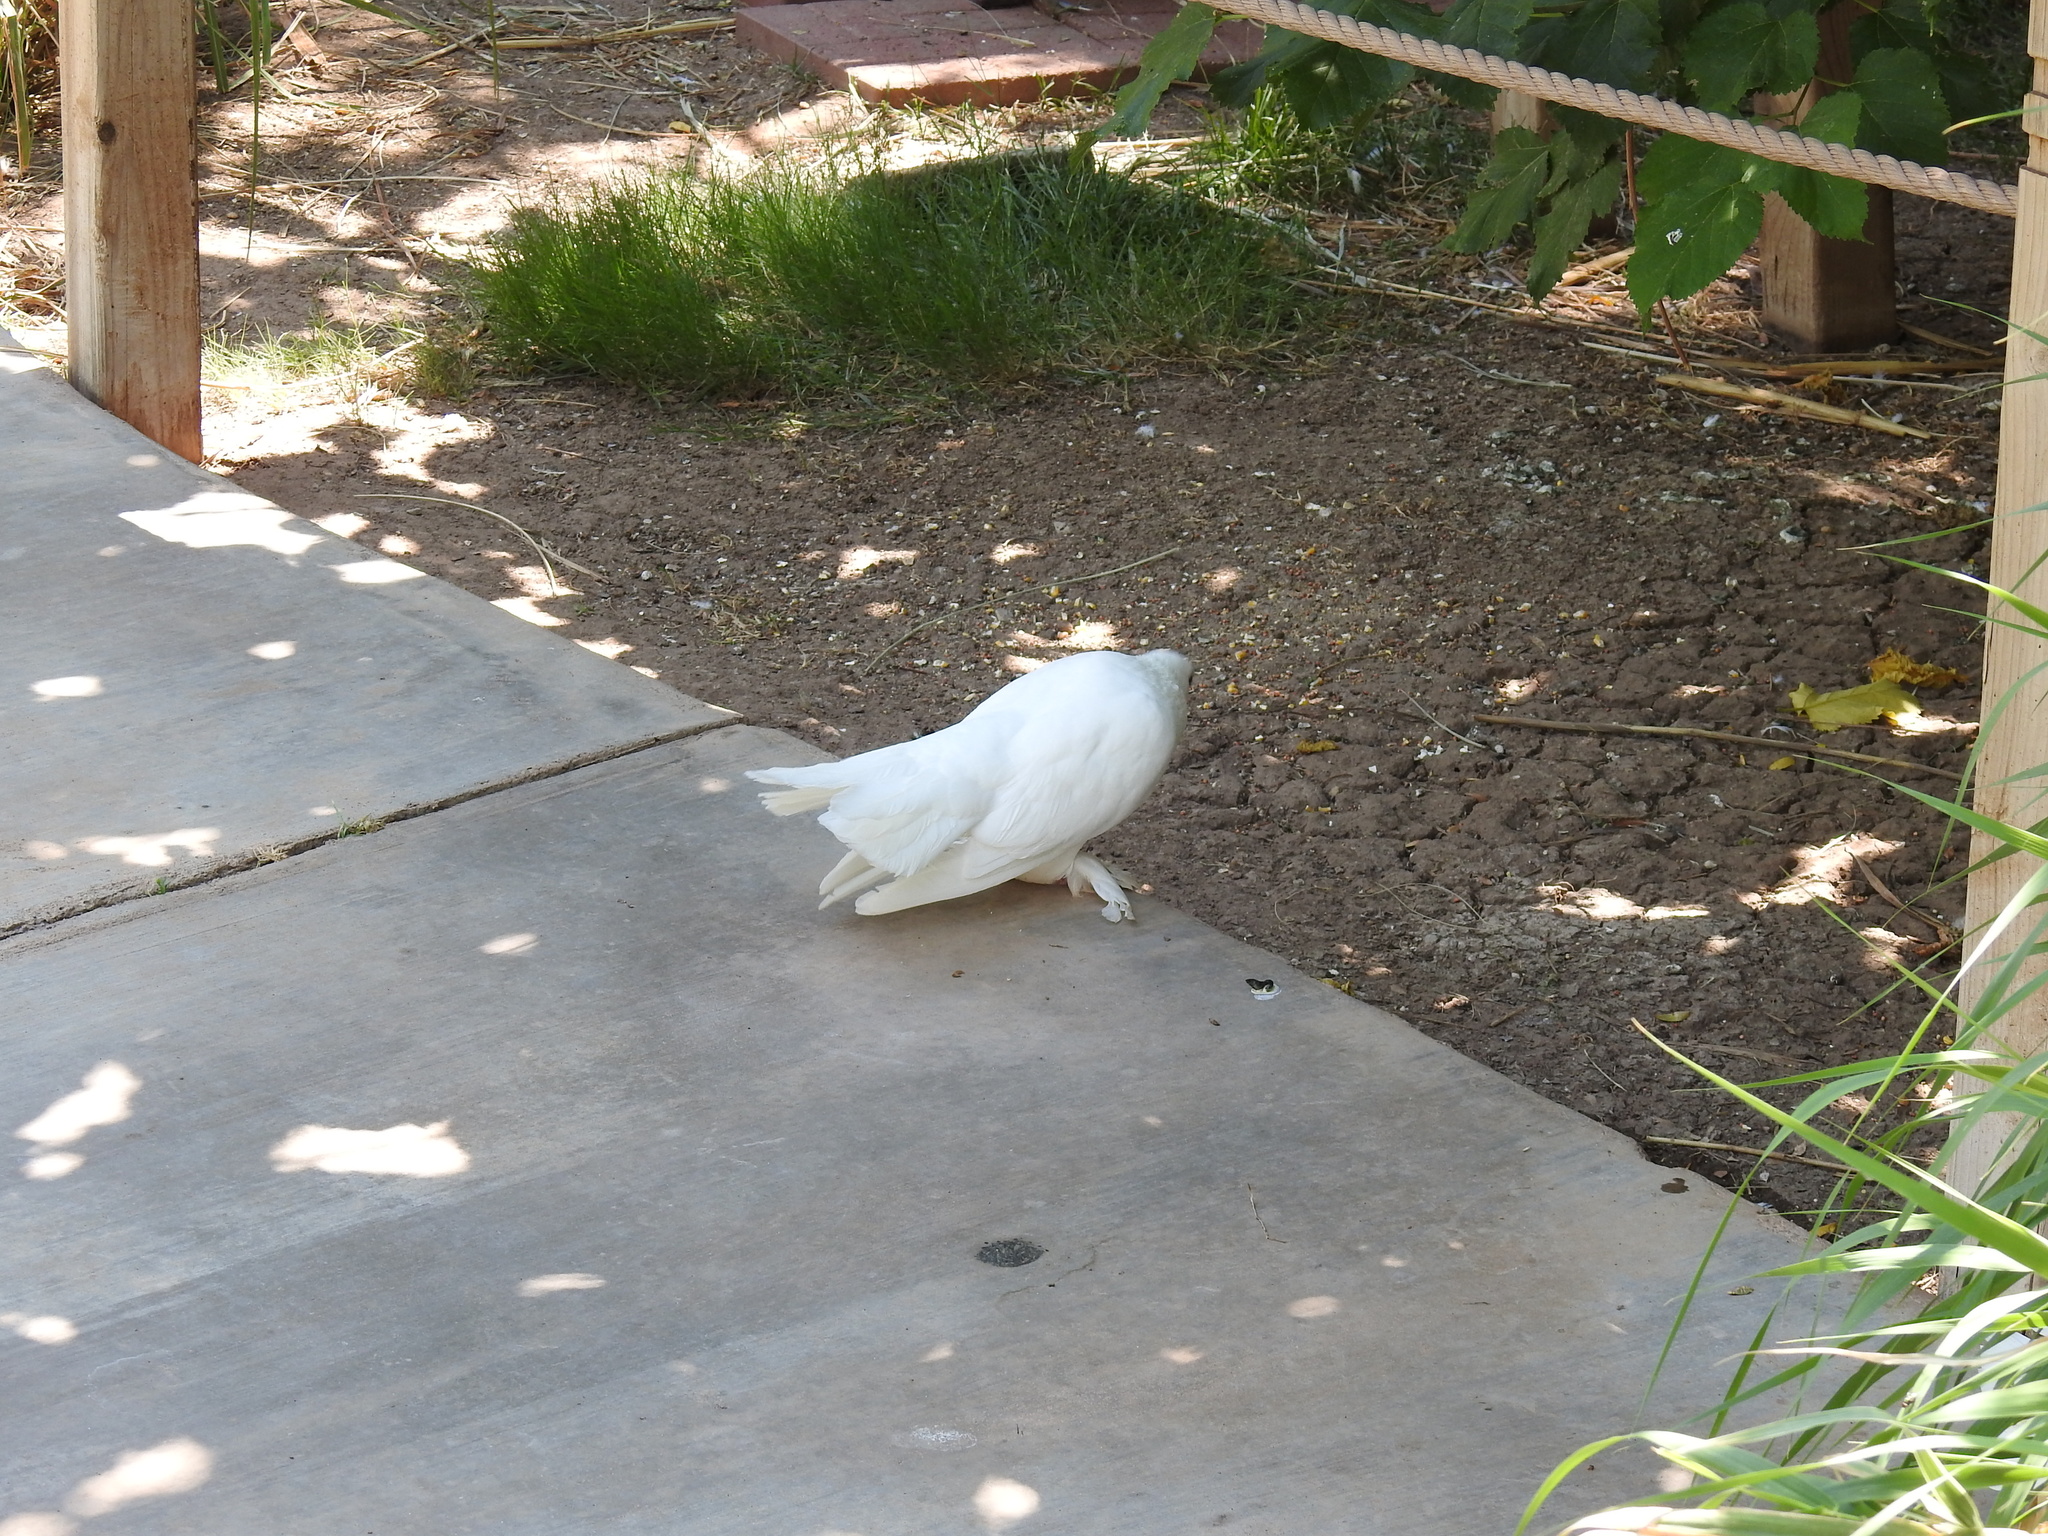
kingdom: Animalia
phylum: Chordata
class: Aves
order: Columbiformes
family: Columbidae
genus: Columba
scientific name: Columba livia
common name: Rock pigeon
